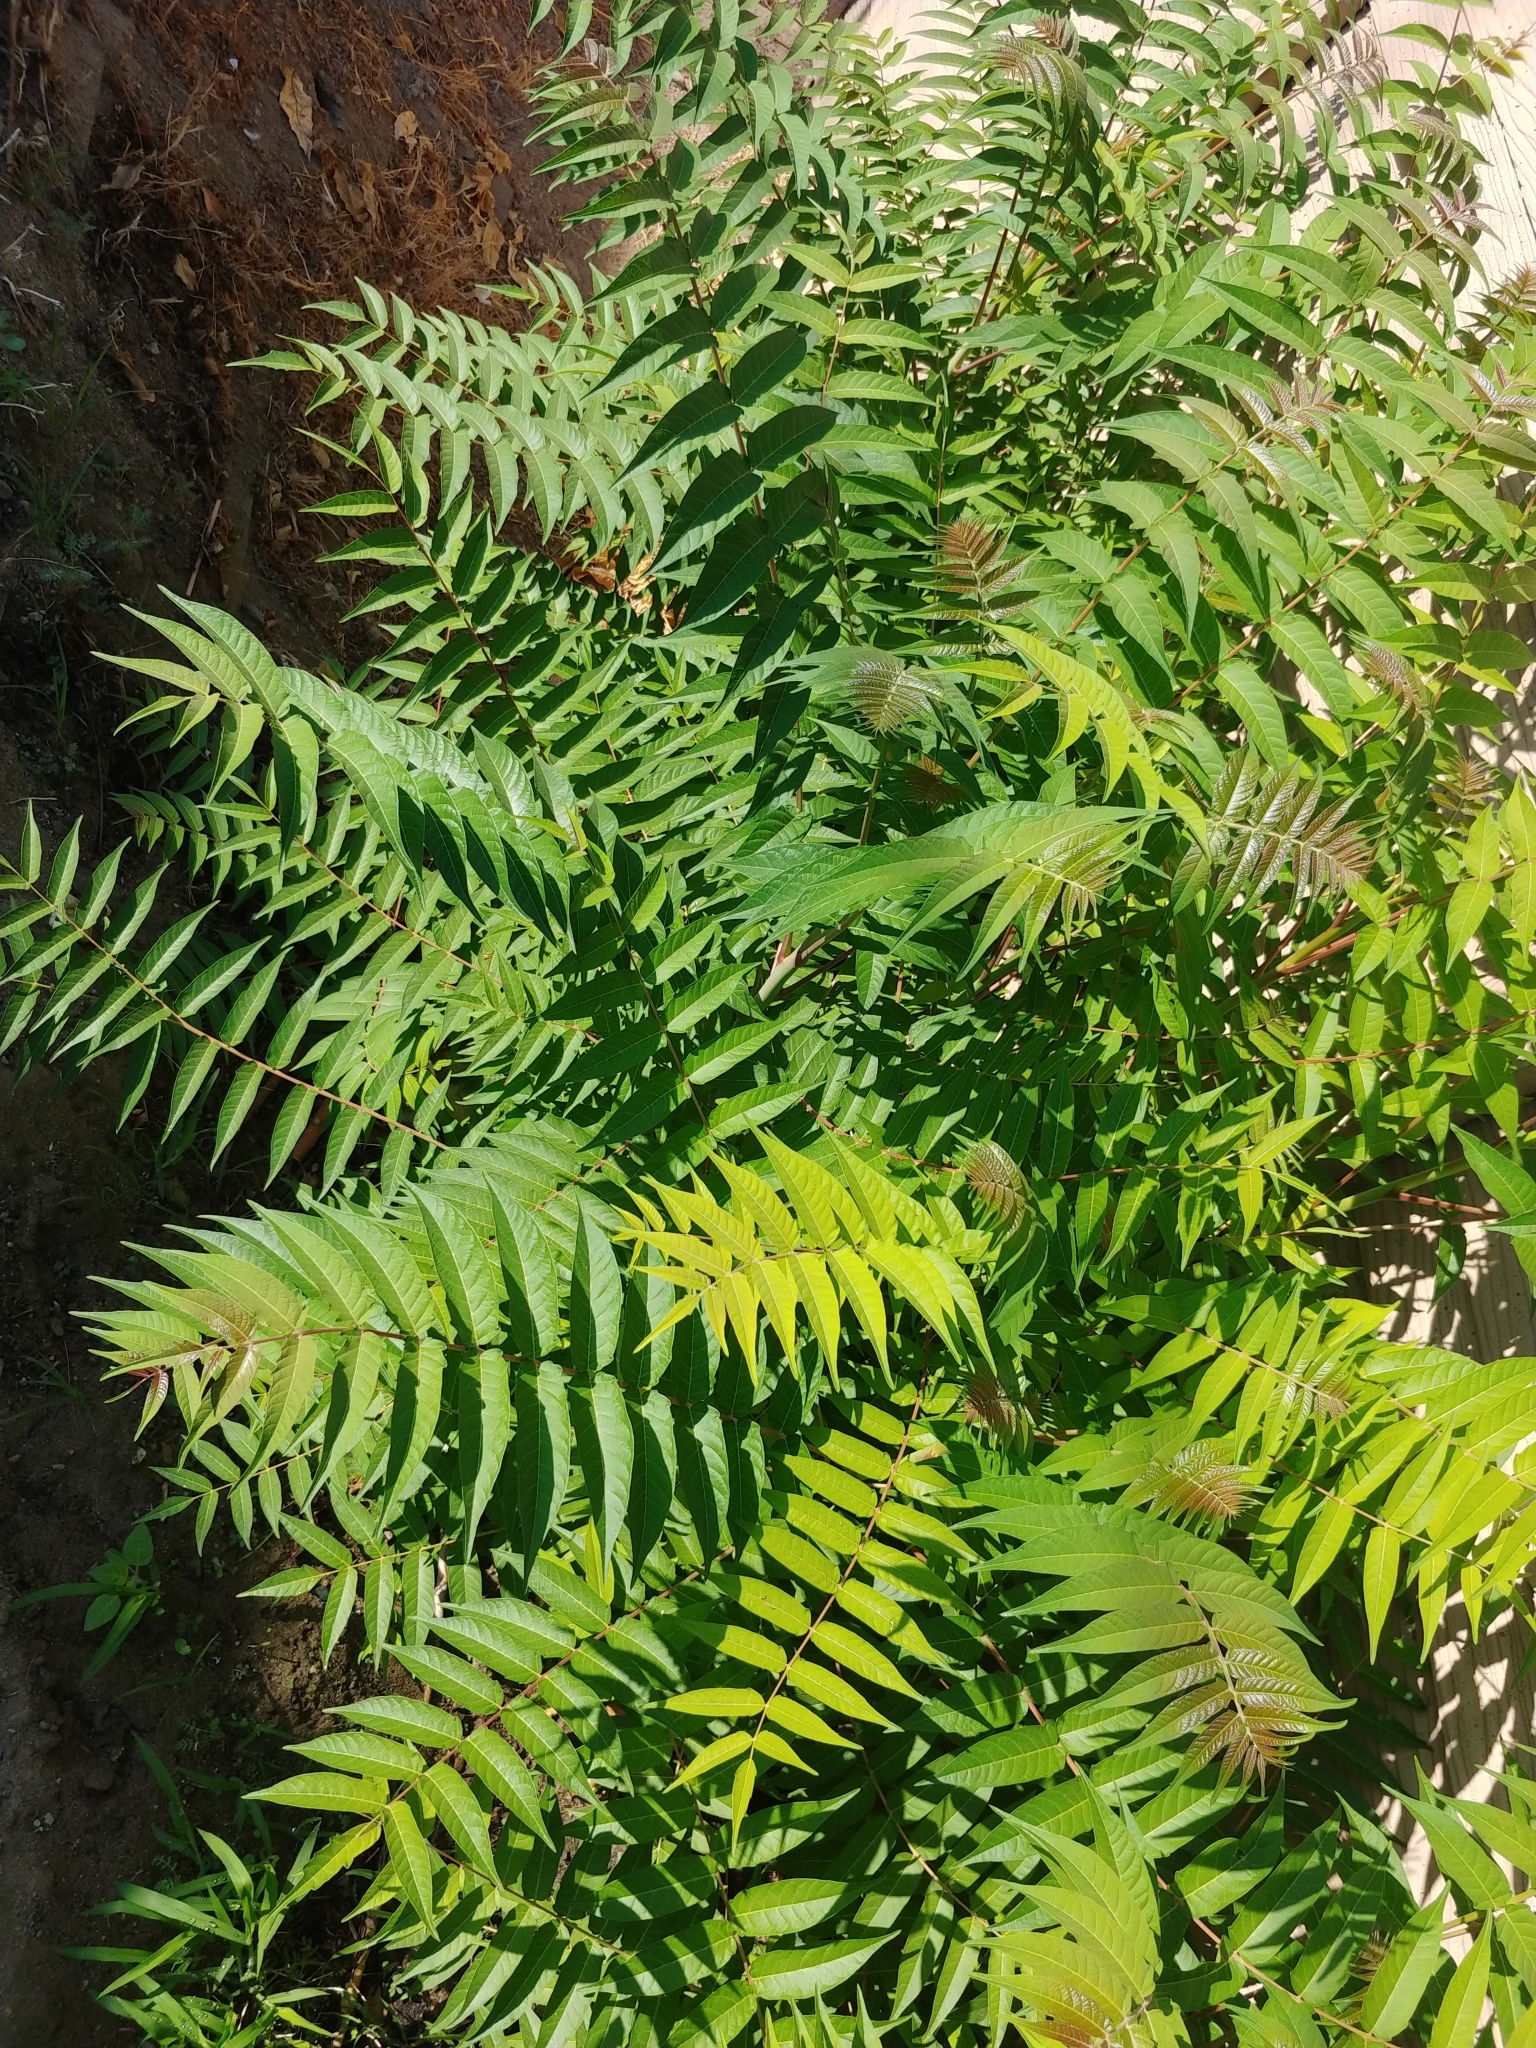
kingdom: Plantae
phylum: Tracheophyta
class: Magnoliopsida
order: Sapindales
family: Simaroubaceae
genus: Ailanthus
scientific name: Ailanthus altissima
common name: Tree-of-heaven
